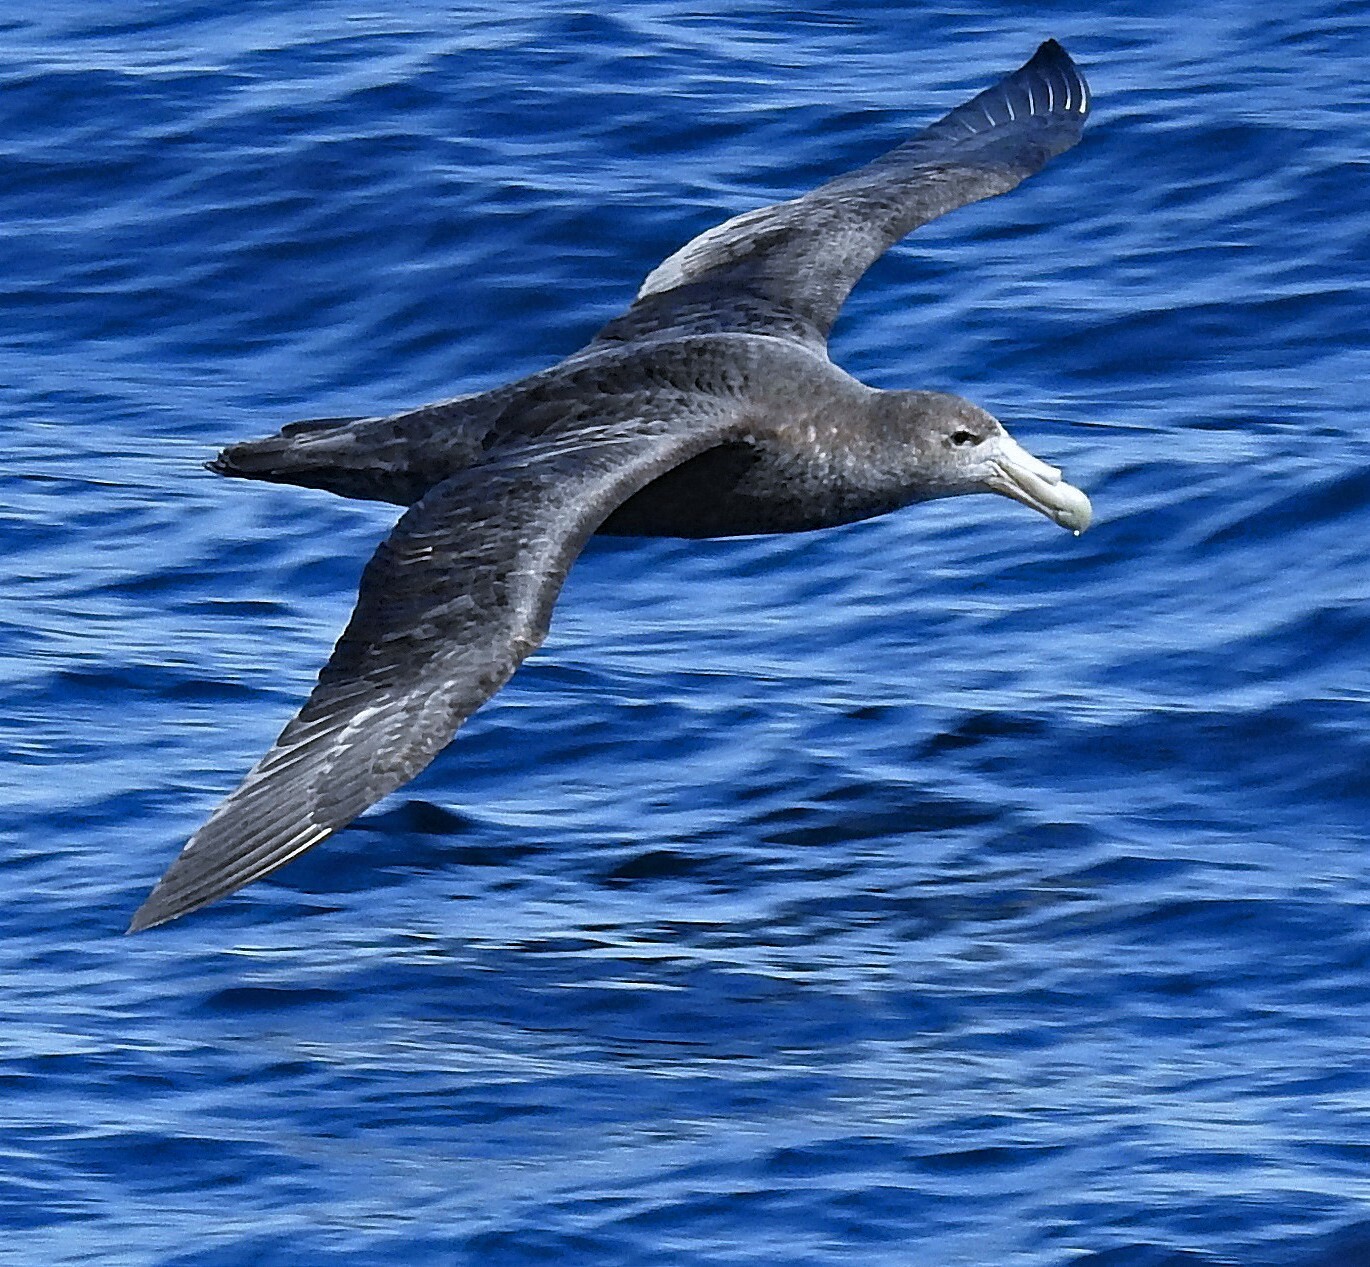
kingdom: Animalia
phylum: Chordata
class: Aves
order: Procellariiformes
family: Procellariidae
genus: Macronectes
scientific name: Macronectes giganteus
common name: Southern giant petrel
